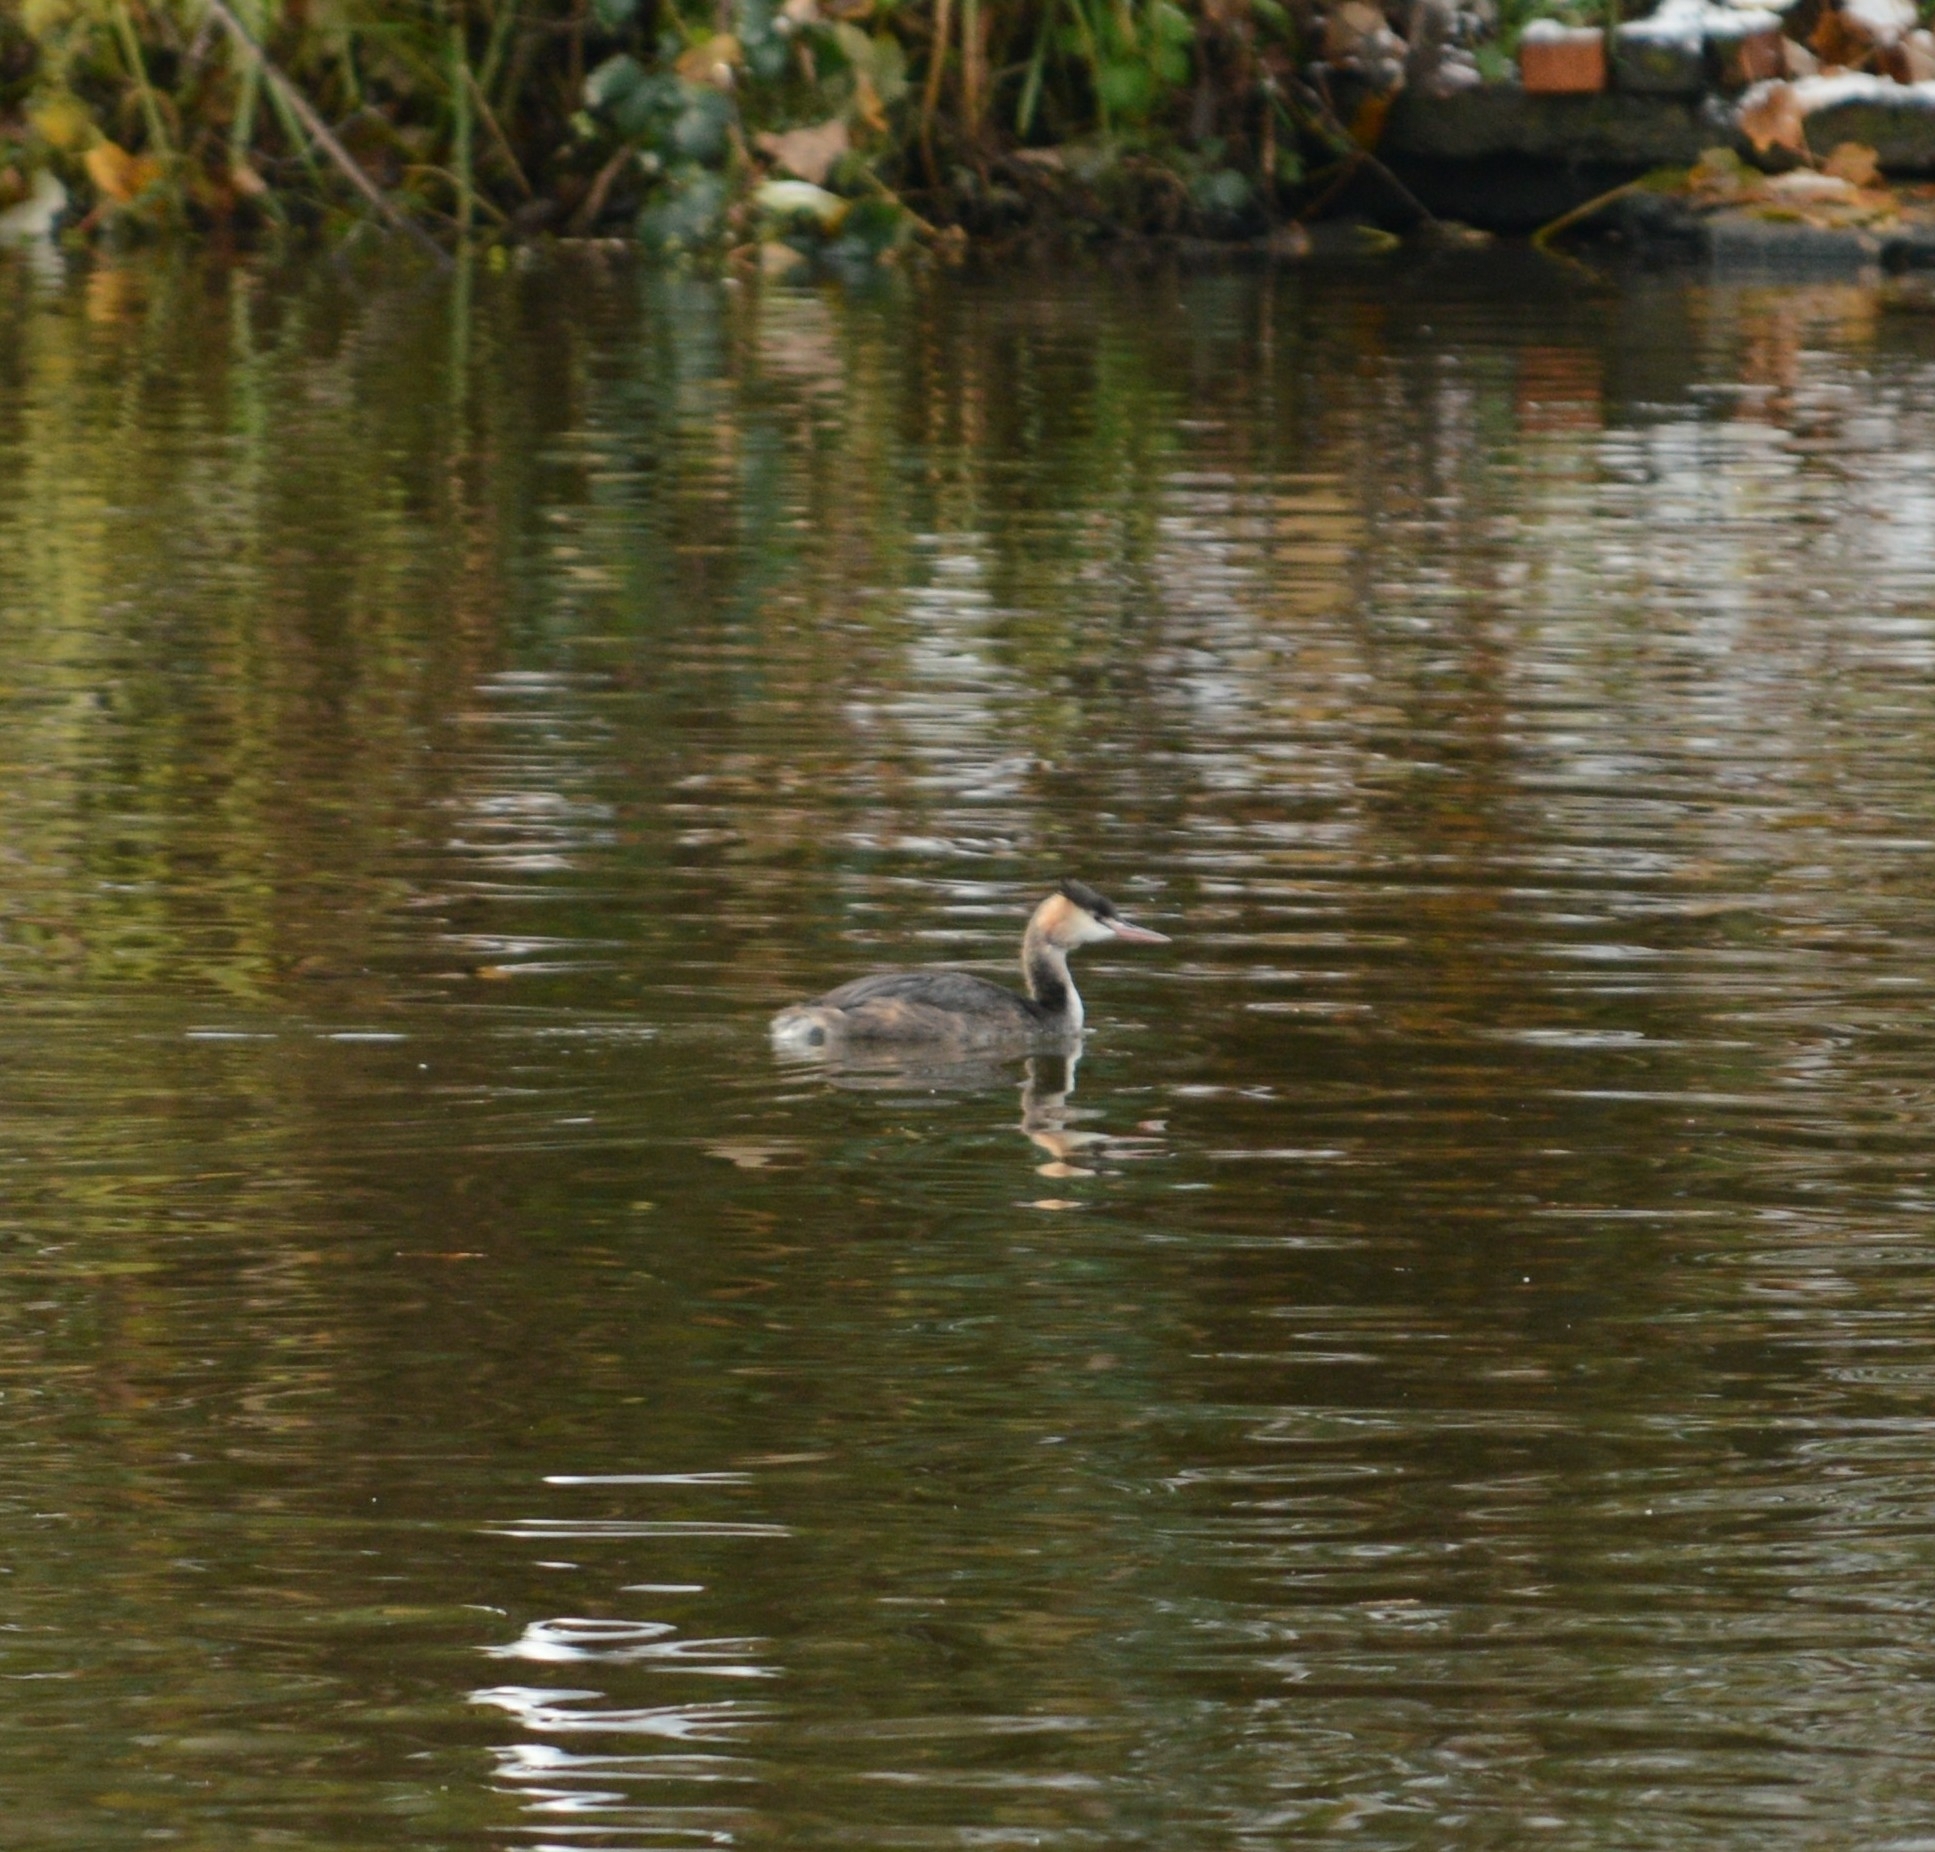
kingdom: Animalia
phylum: Chordata
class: Aves
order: Podicipediformes
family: Podicipedidae
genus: Podiceps
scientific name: Podiceps cristatus
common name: Great crested grebe
